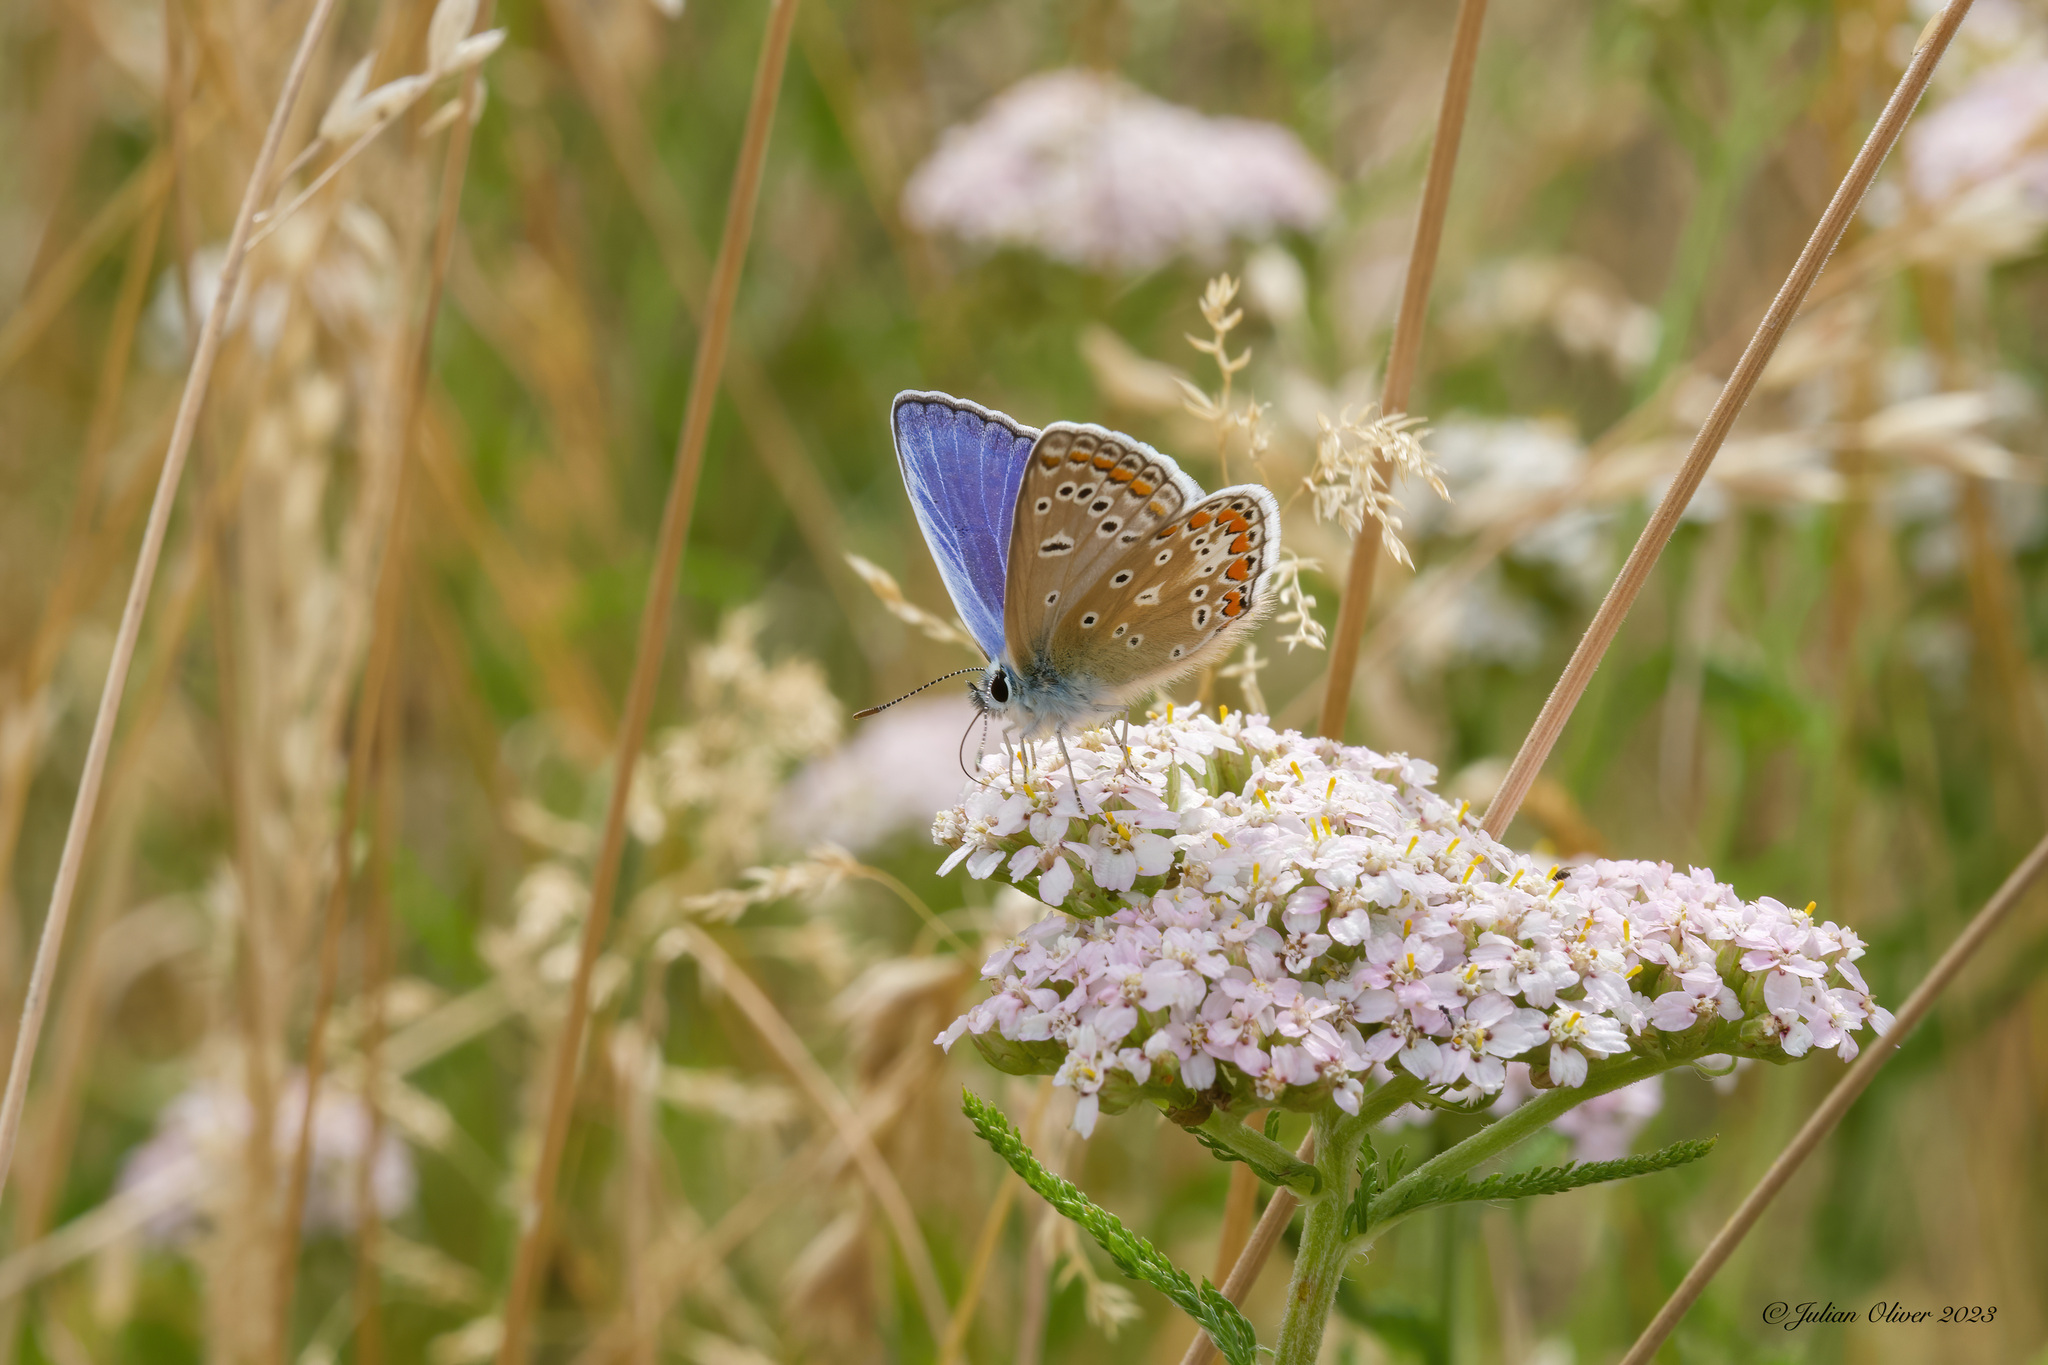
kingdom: Animalia
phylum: Arthropoda
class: Insecta
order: Lepidoptera
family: Lycaenidae
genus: Polyommatus
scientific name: Polyommatus icarus
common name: Common blue
